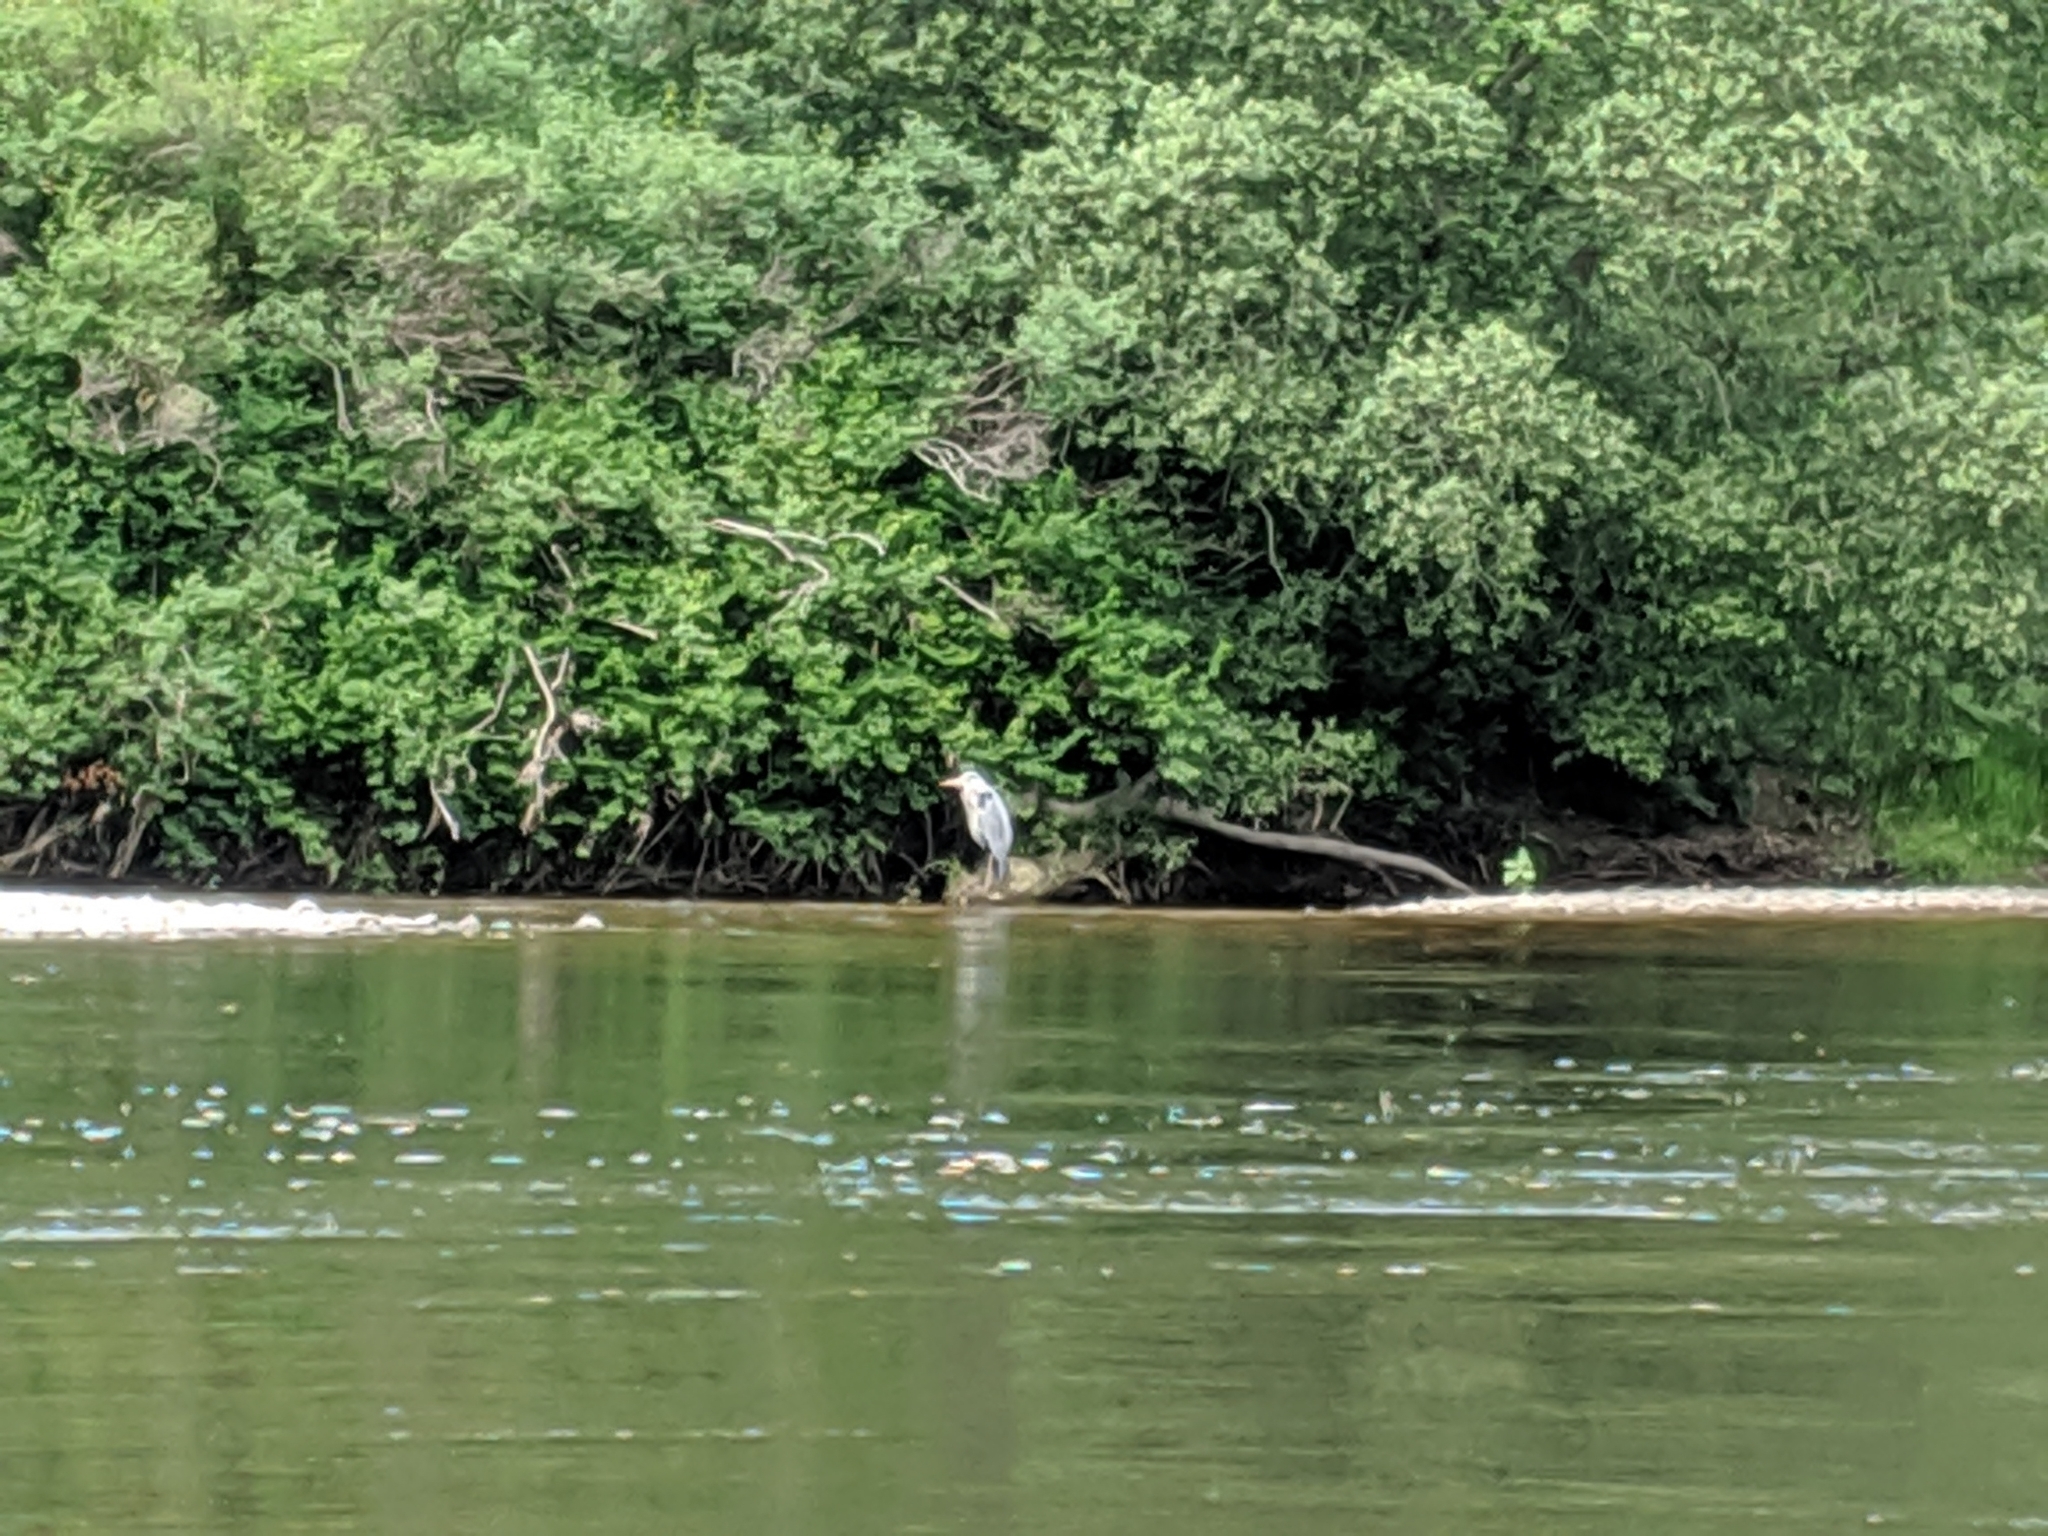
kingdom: Animalia
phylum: Chordata
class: Aves
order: Pelecaniformes
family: Ardeidae
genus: Ardea
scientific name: Ardea cinerea
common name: Grey heron
